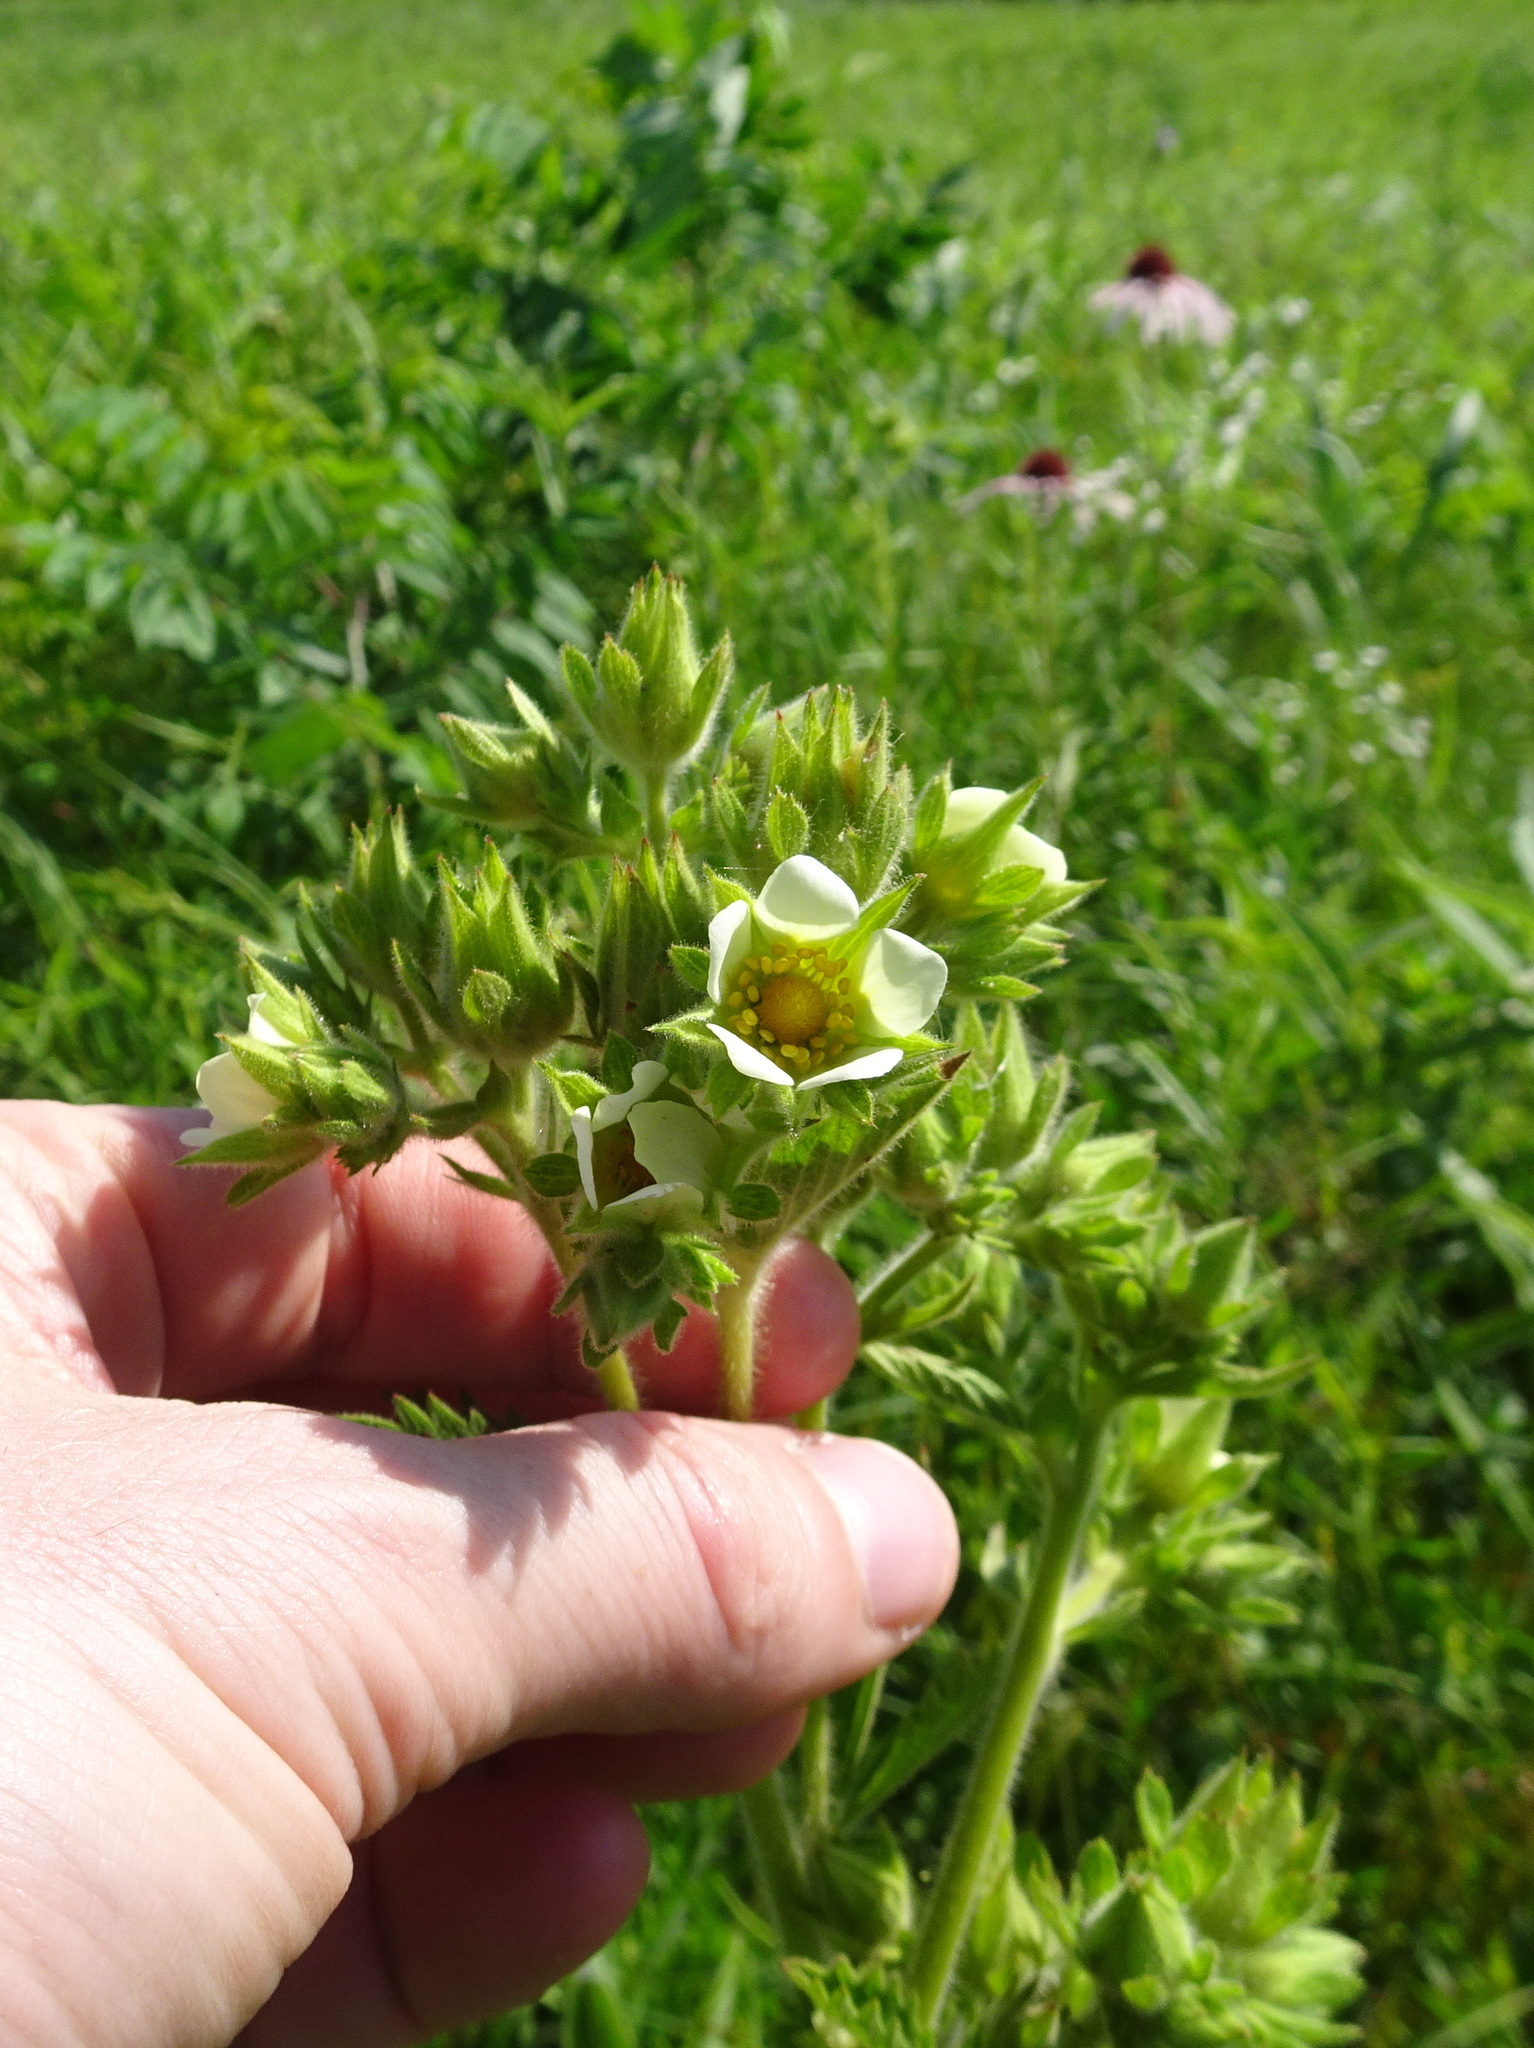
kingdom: Plantae
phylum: Tracheophyta
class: Magnoliopsida
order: Rosales
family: Rosaceae
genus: Drymocallis
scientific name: Drymocallis arguta
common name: Tall cinquefoil
